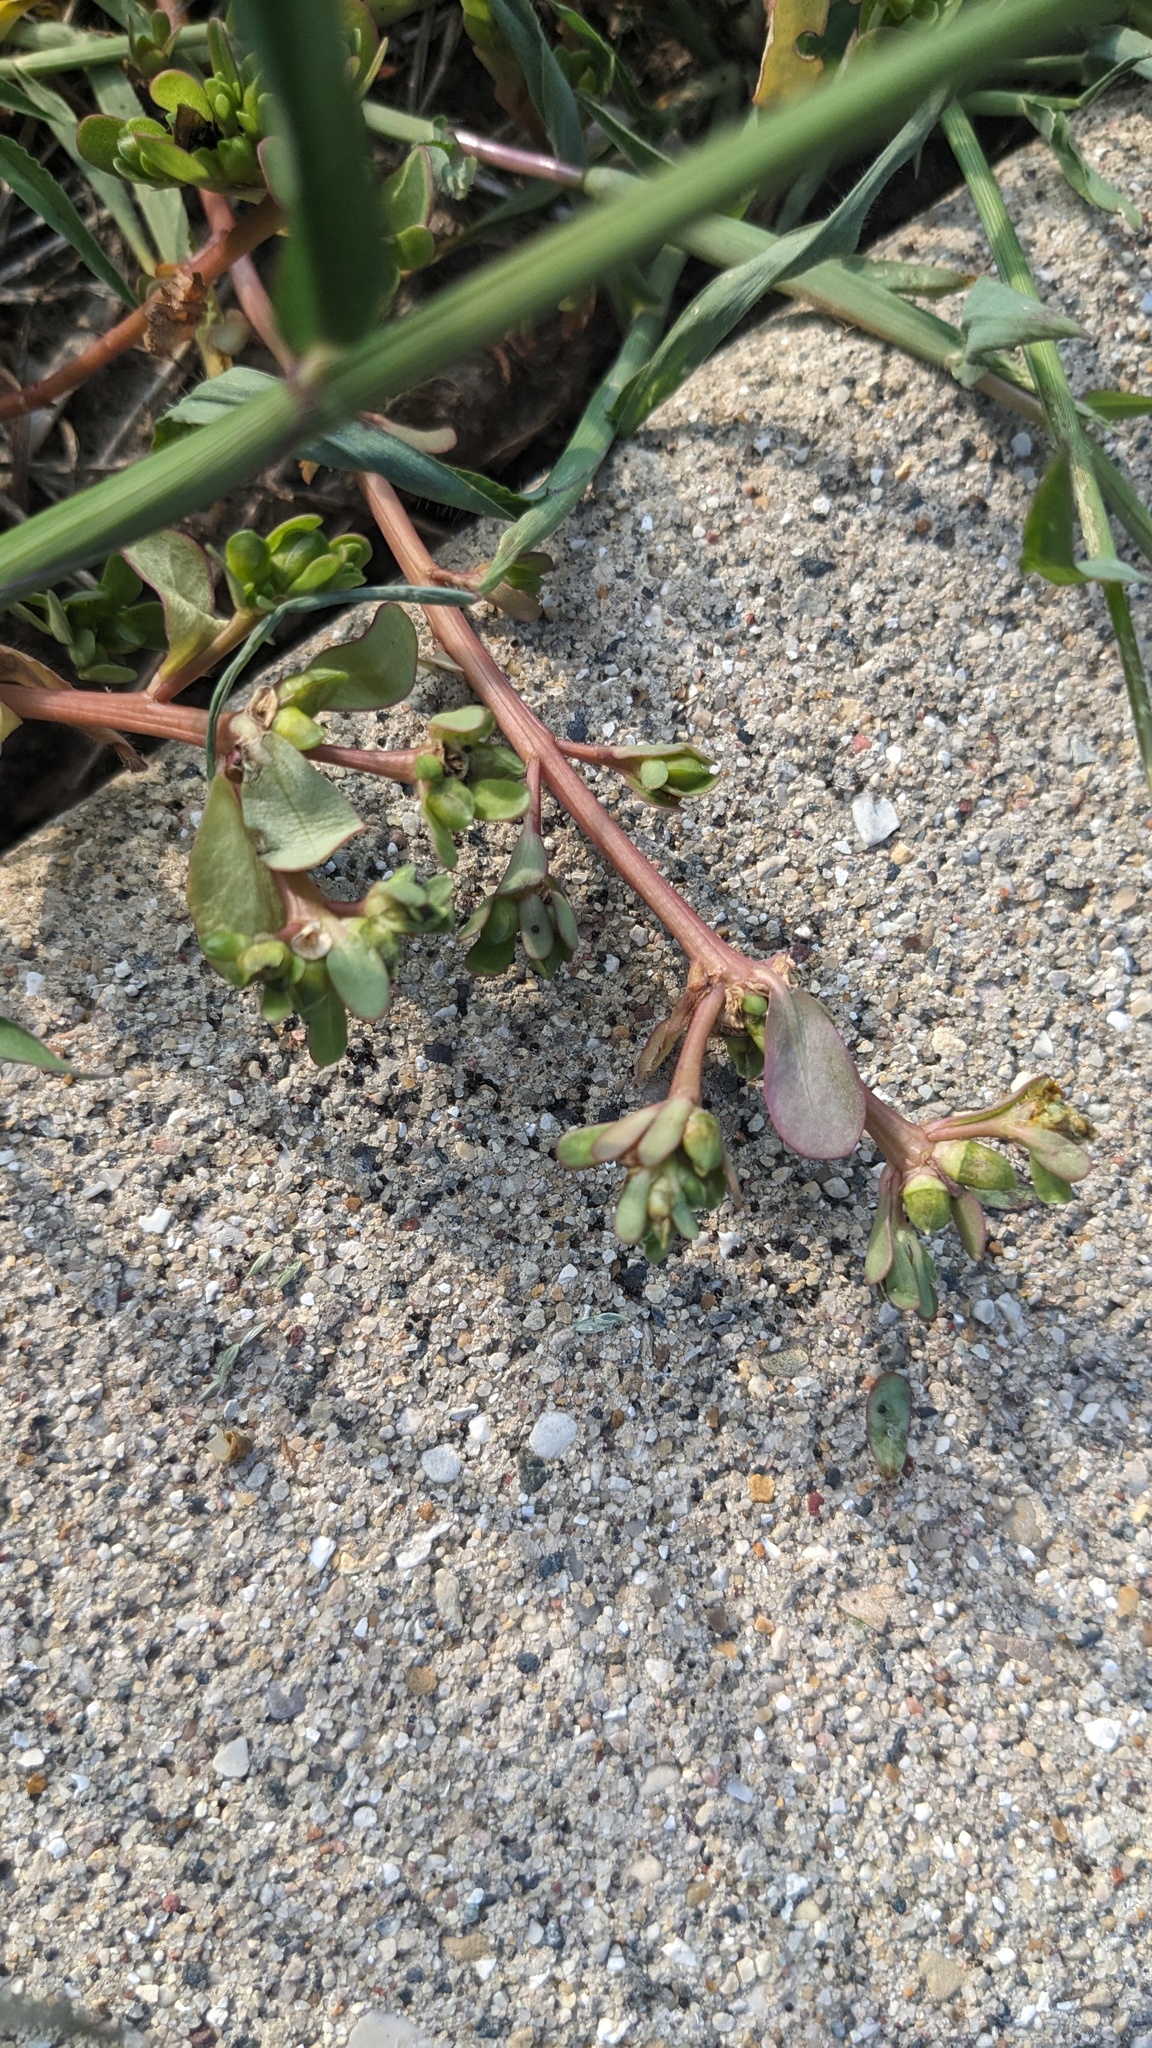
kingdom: Plantae
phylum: Tracheophyta
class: Magnoliopsida
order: Caryophyllales
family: Portulacaceae
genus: Portulaca
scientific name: Portulaca oleracea
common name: Common purslane
